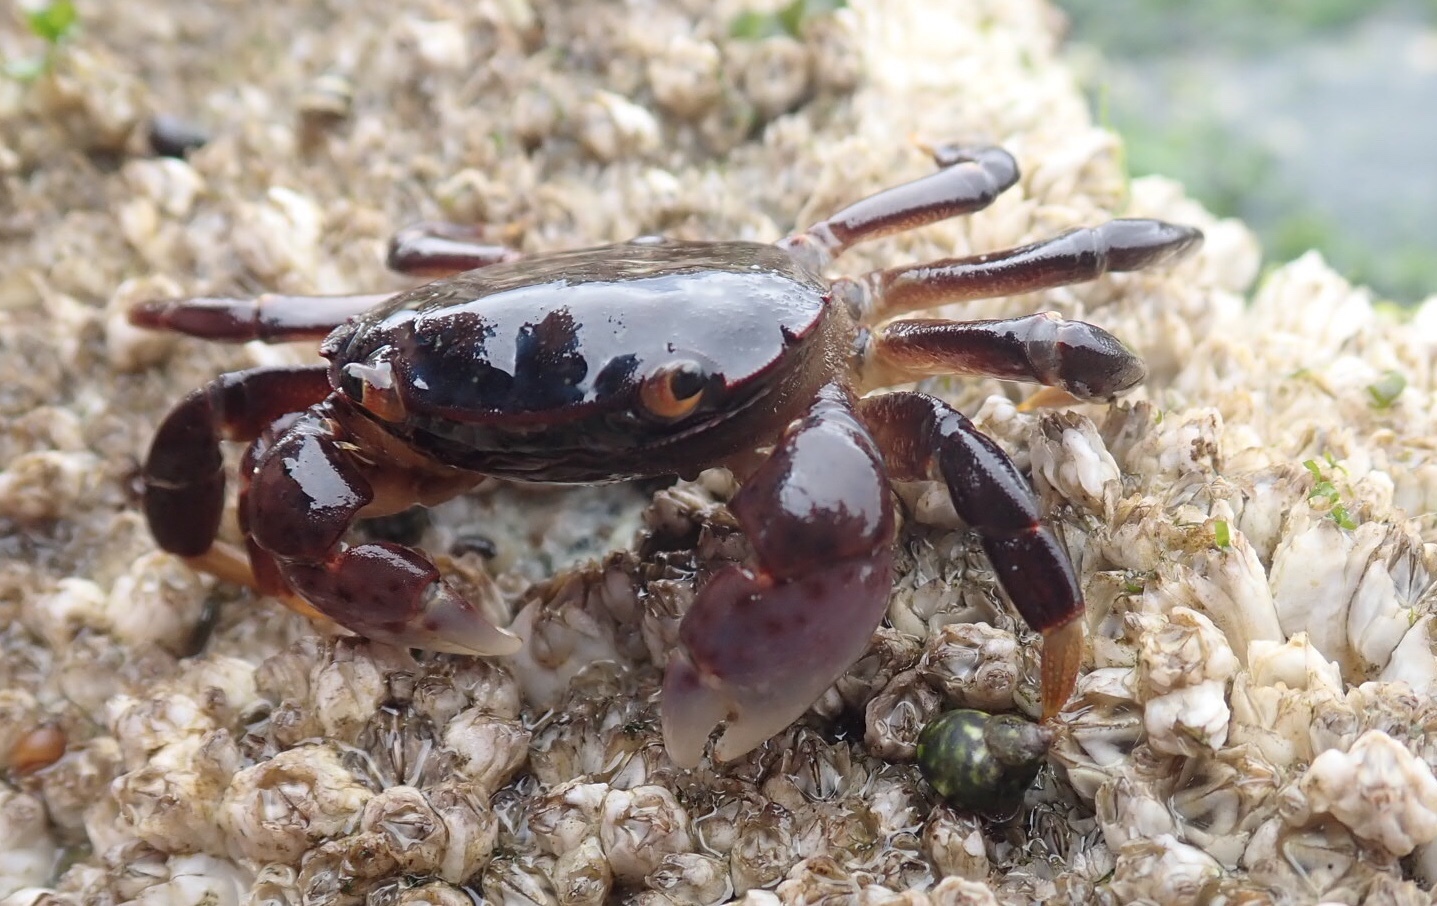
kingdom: Animalia
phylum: Arthropoda
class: Malacostraca
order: Decapoda
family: Varunidae
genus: Hemigrapsus
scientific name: Hemigrapsus nudus
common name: Purple shore crab
